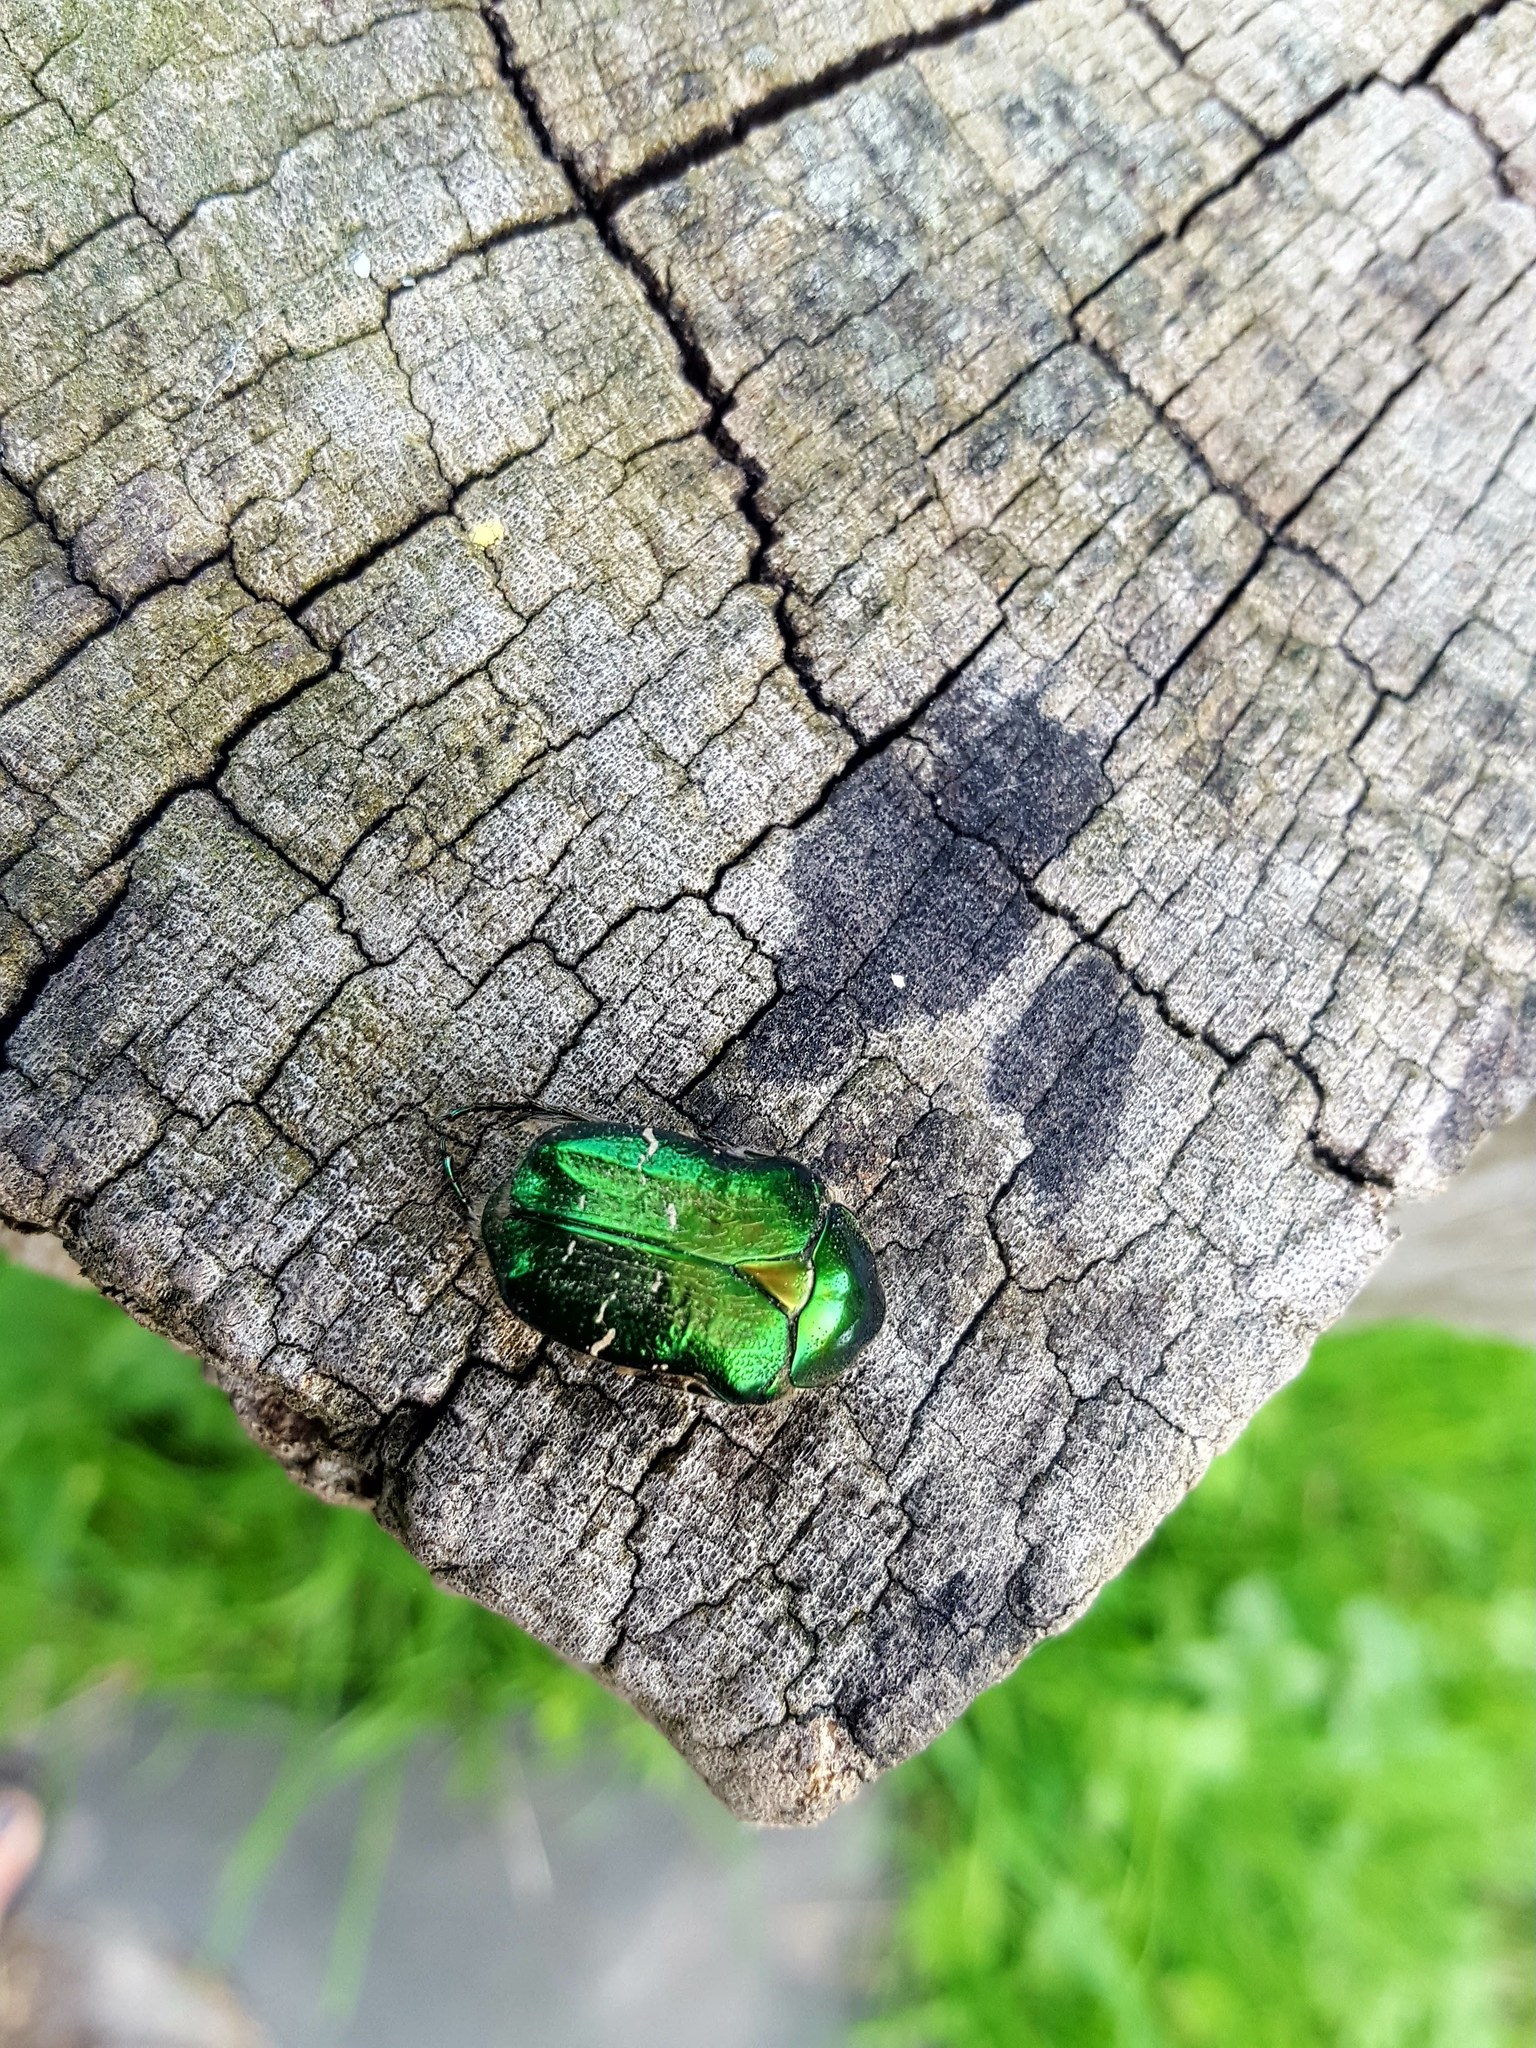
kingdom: Animalia
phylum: Arthropoda
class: Insecta
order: Coleoptera
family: Scarabaeidae
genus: Cetonia
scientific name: Cetonia aurata
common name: Rose chafer
